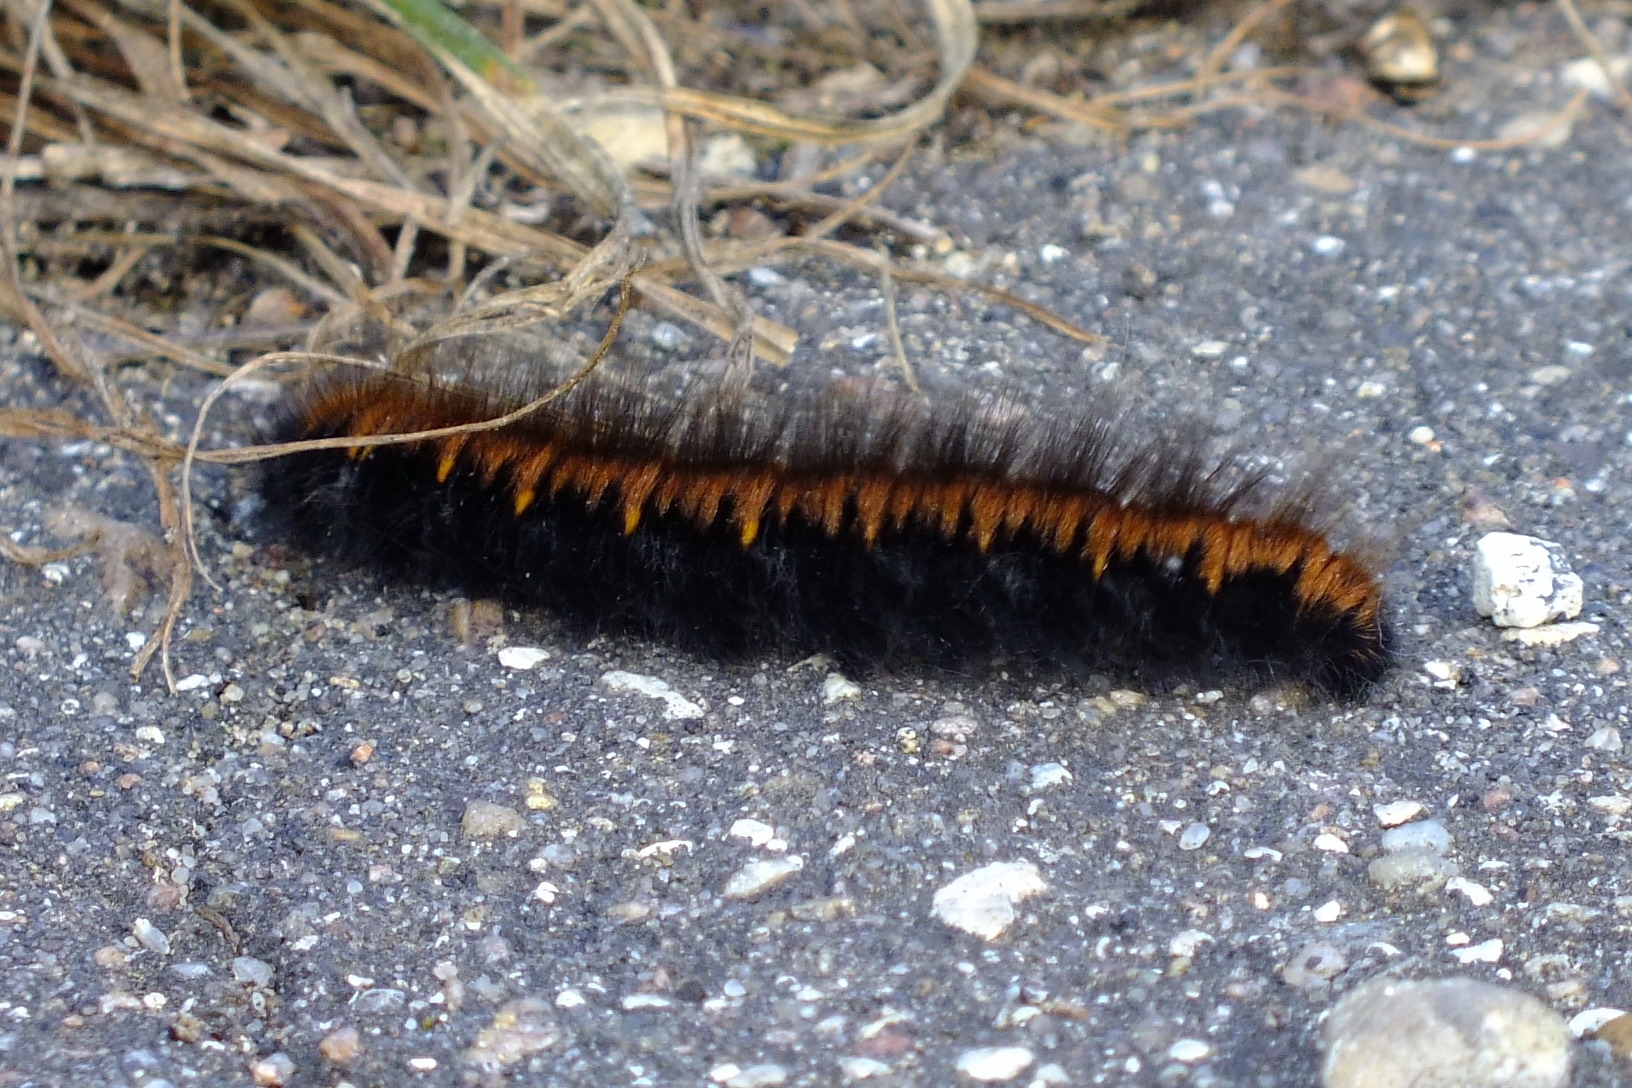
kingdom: Animalia
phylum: Arthropoda
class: Insecta
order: Lepidoptera
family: Lasiocampidae
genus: Macrothylacia
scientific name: Macrothylacia rubi
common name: Fox moth
